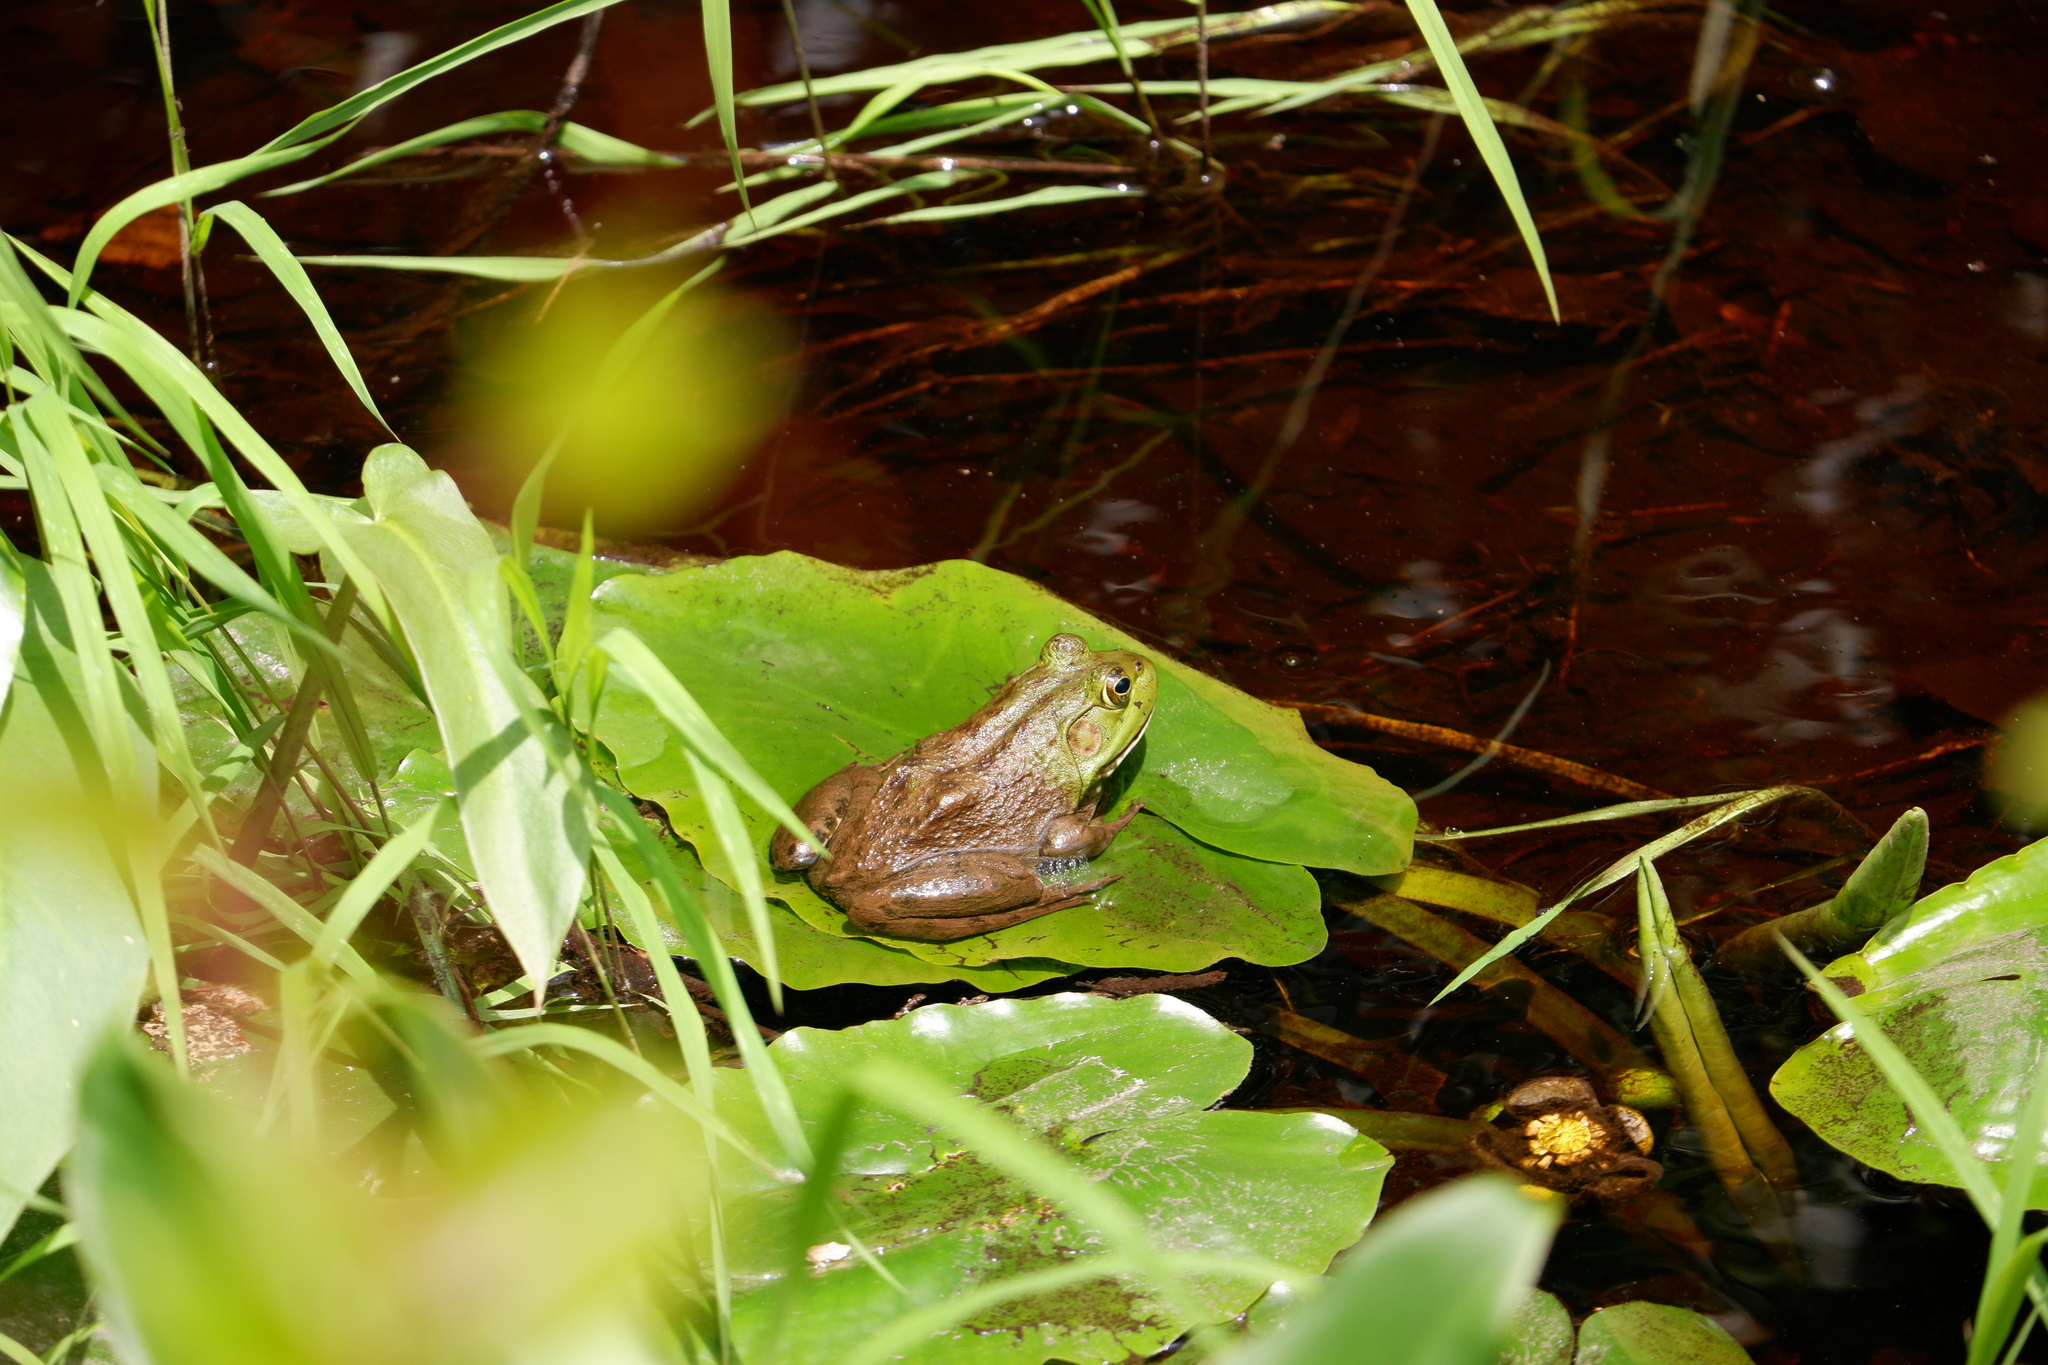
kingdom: Animalia
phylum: Chordata
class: Amphibia
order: Anura
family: Ranidae
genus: Lithobates
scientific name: Lithobates catesbeianus
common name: American bullfrog
